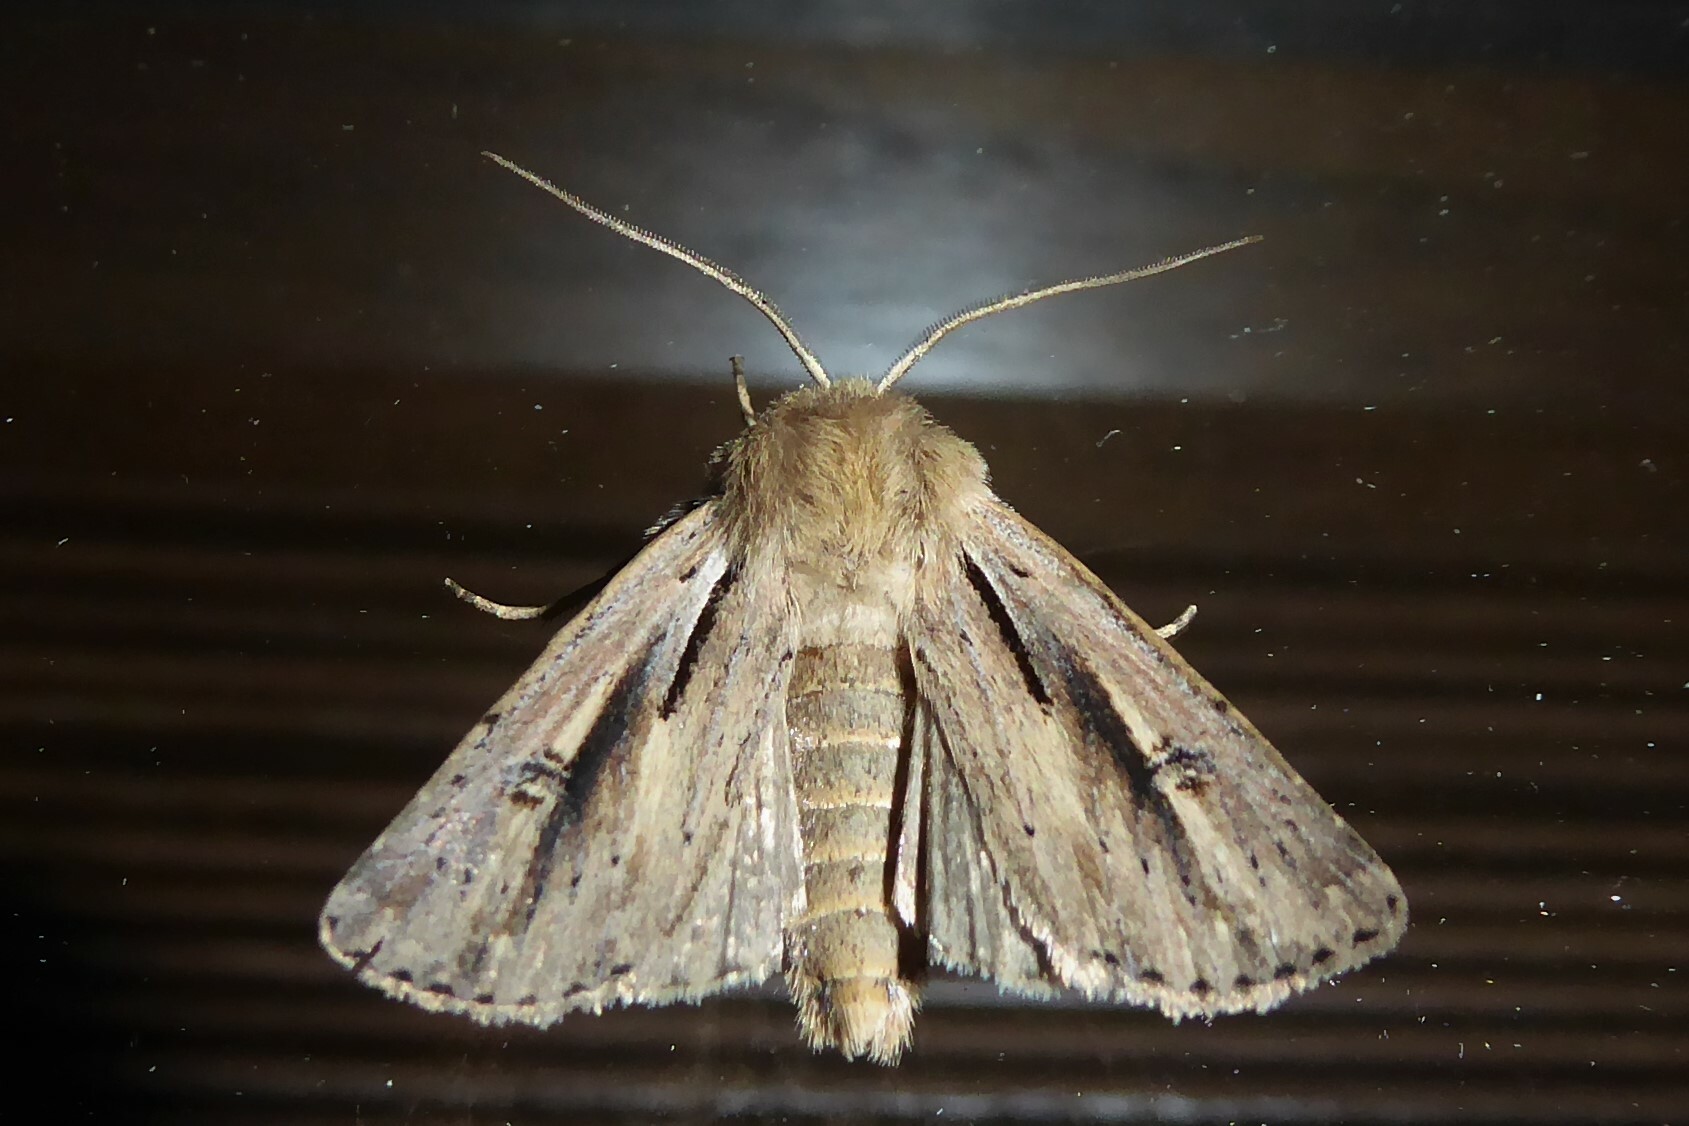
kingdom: Animalia
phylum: Arthropoda
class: Insecta
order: Lepidoptera
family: Noctuidae
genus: Ichneutica
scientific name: Ichneutica propria
